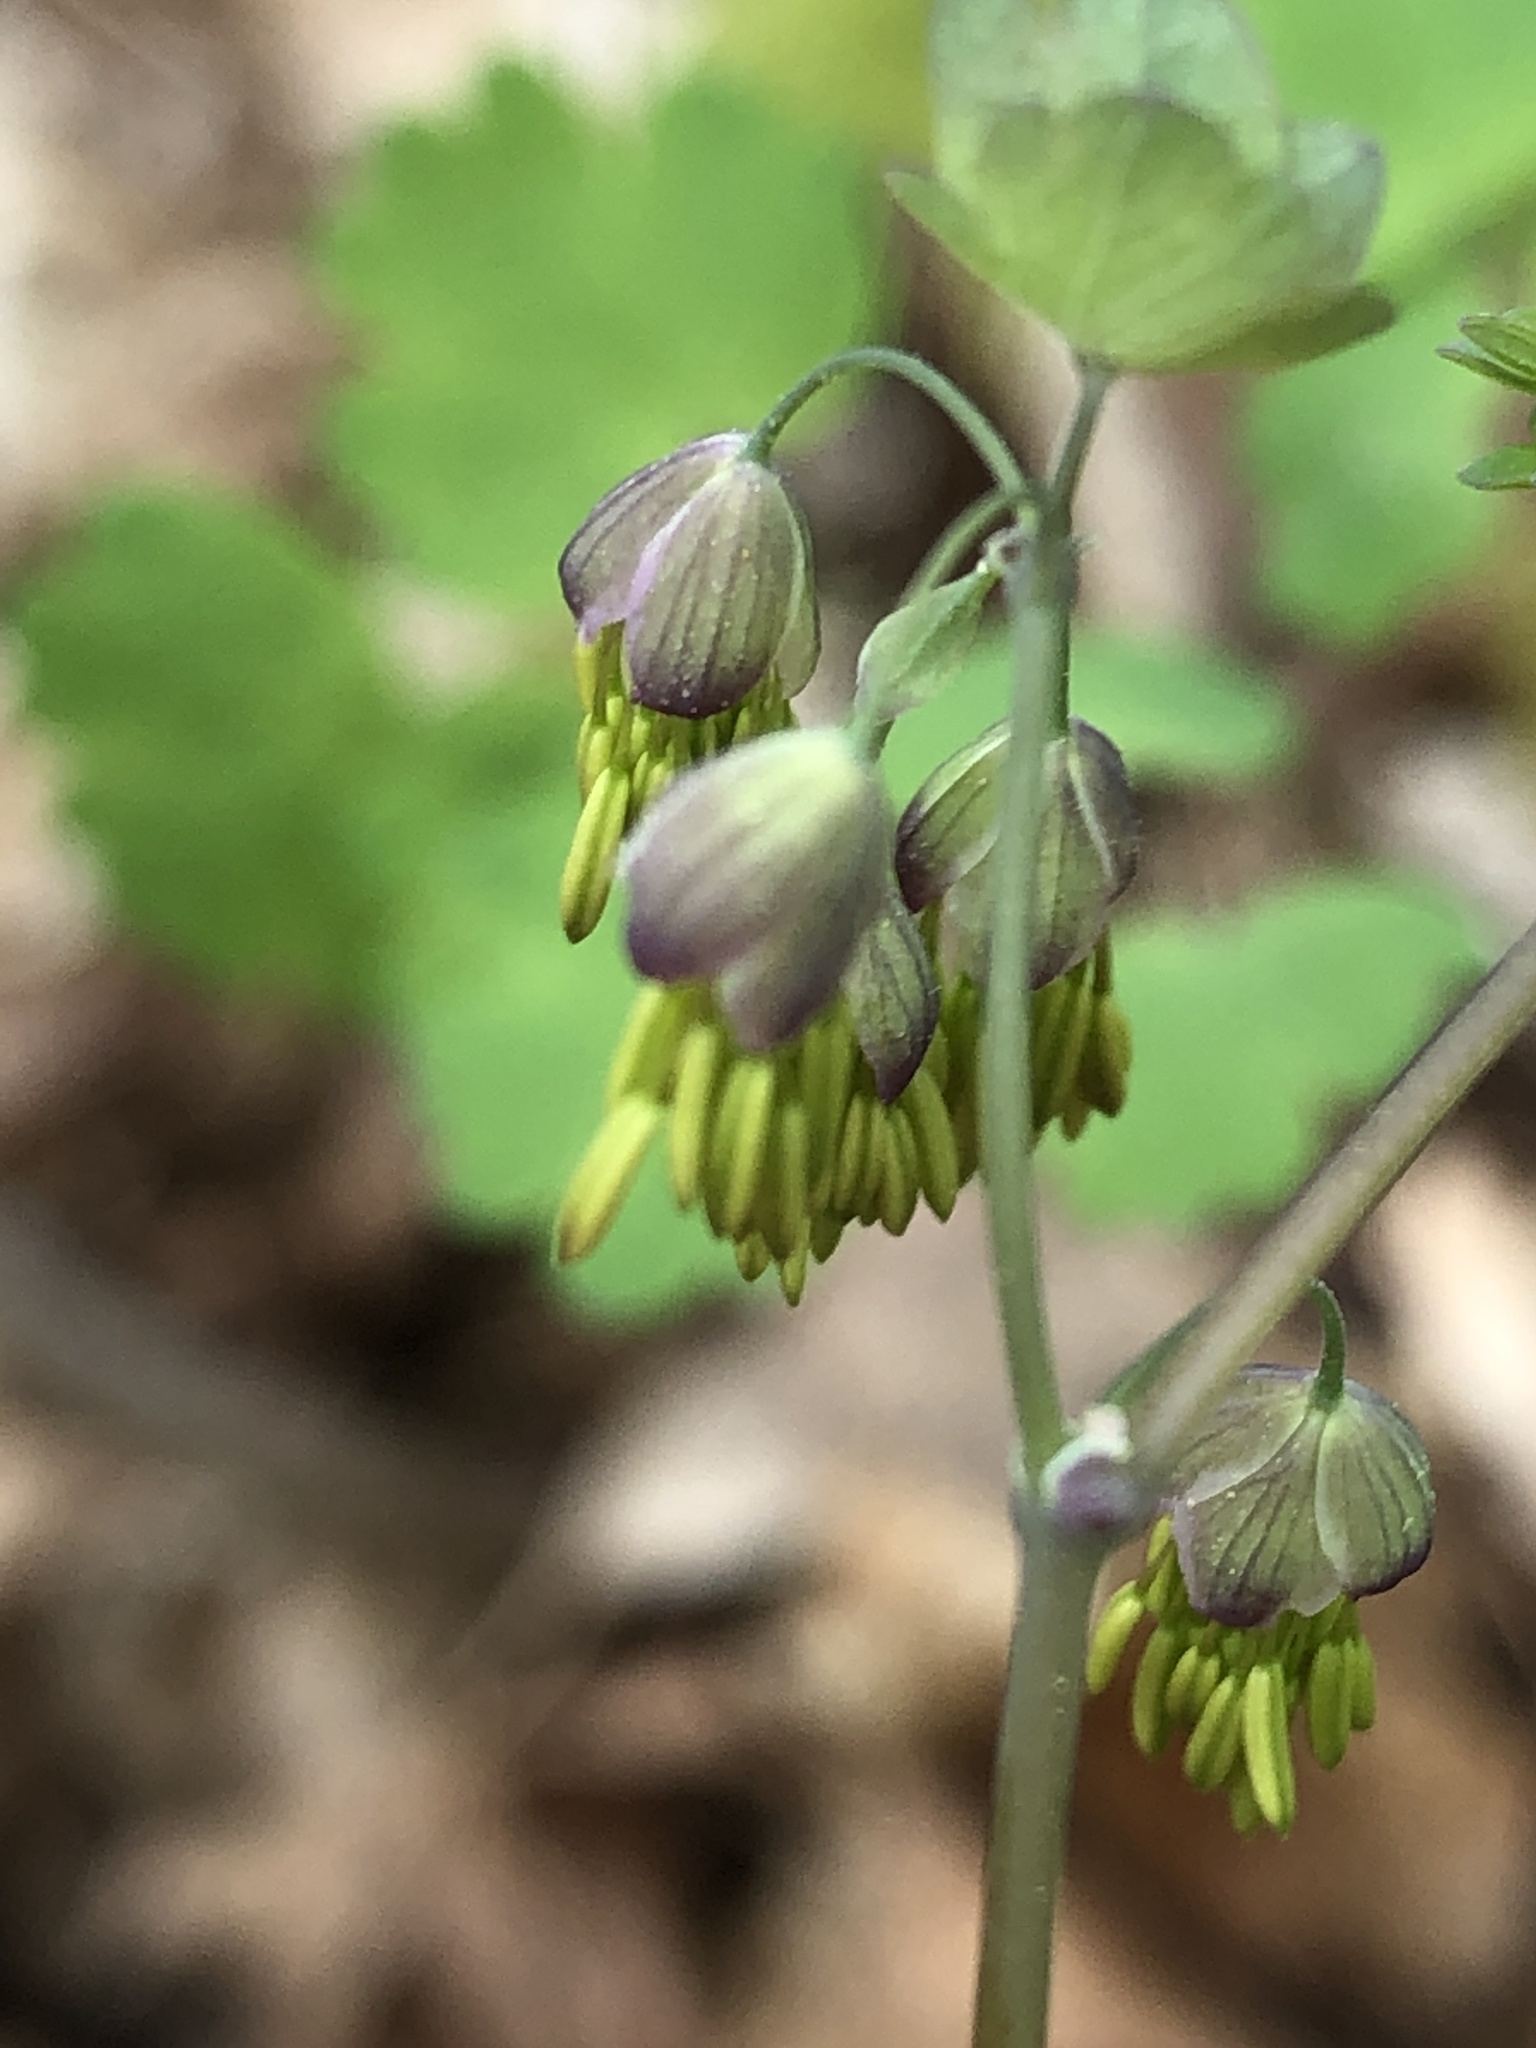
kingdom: Plantae
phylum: Tracheophyta
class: Magnoliopsida
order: Ranunculales
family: Ranunculaceae
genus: Thalictrum
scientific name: Thalictrum dioicum
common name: Early meadow-rue
